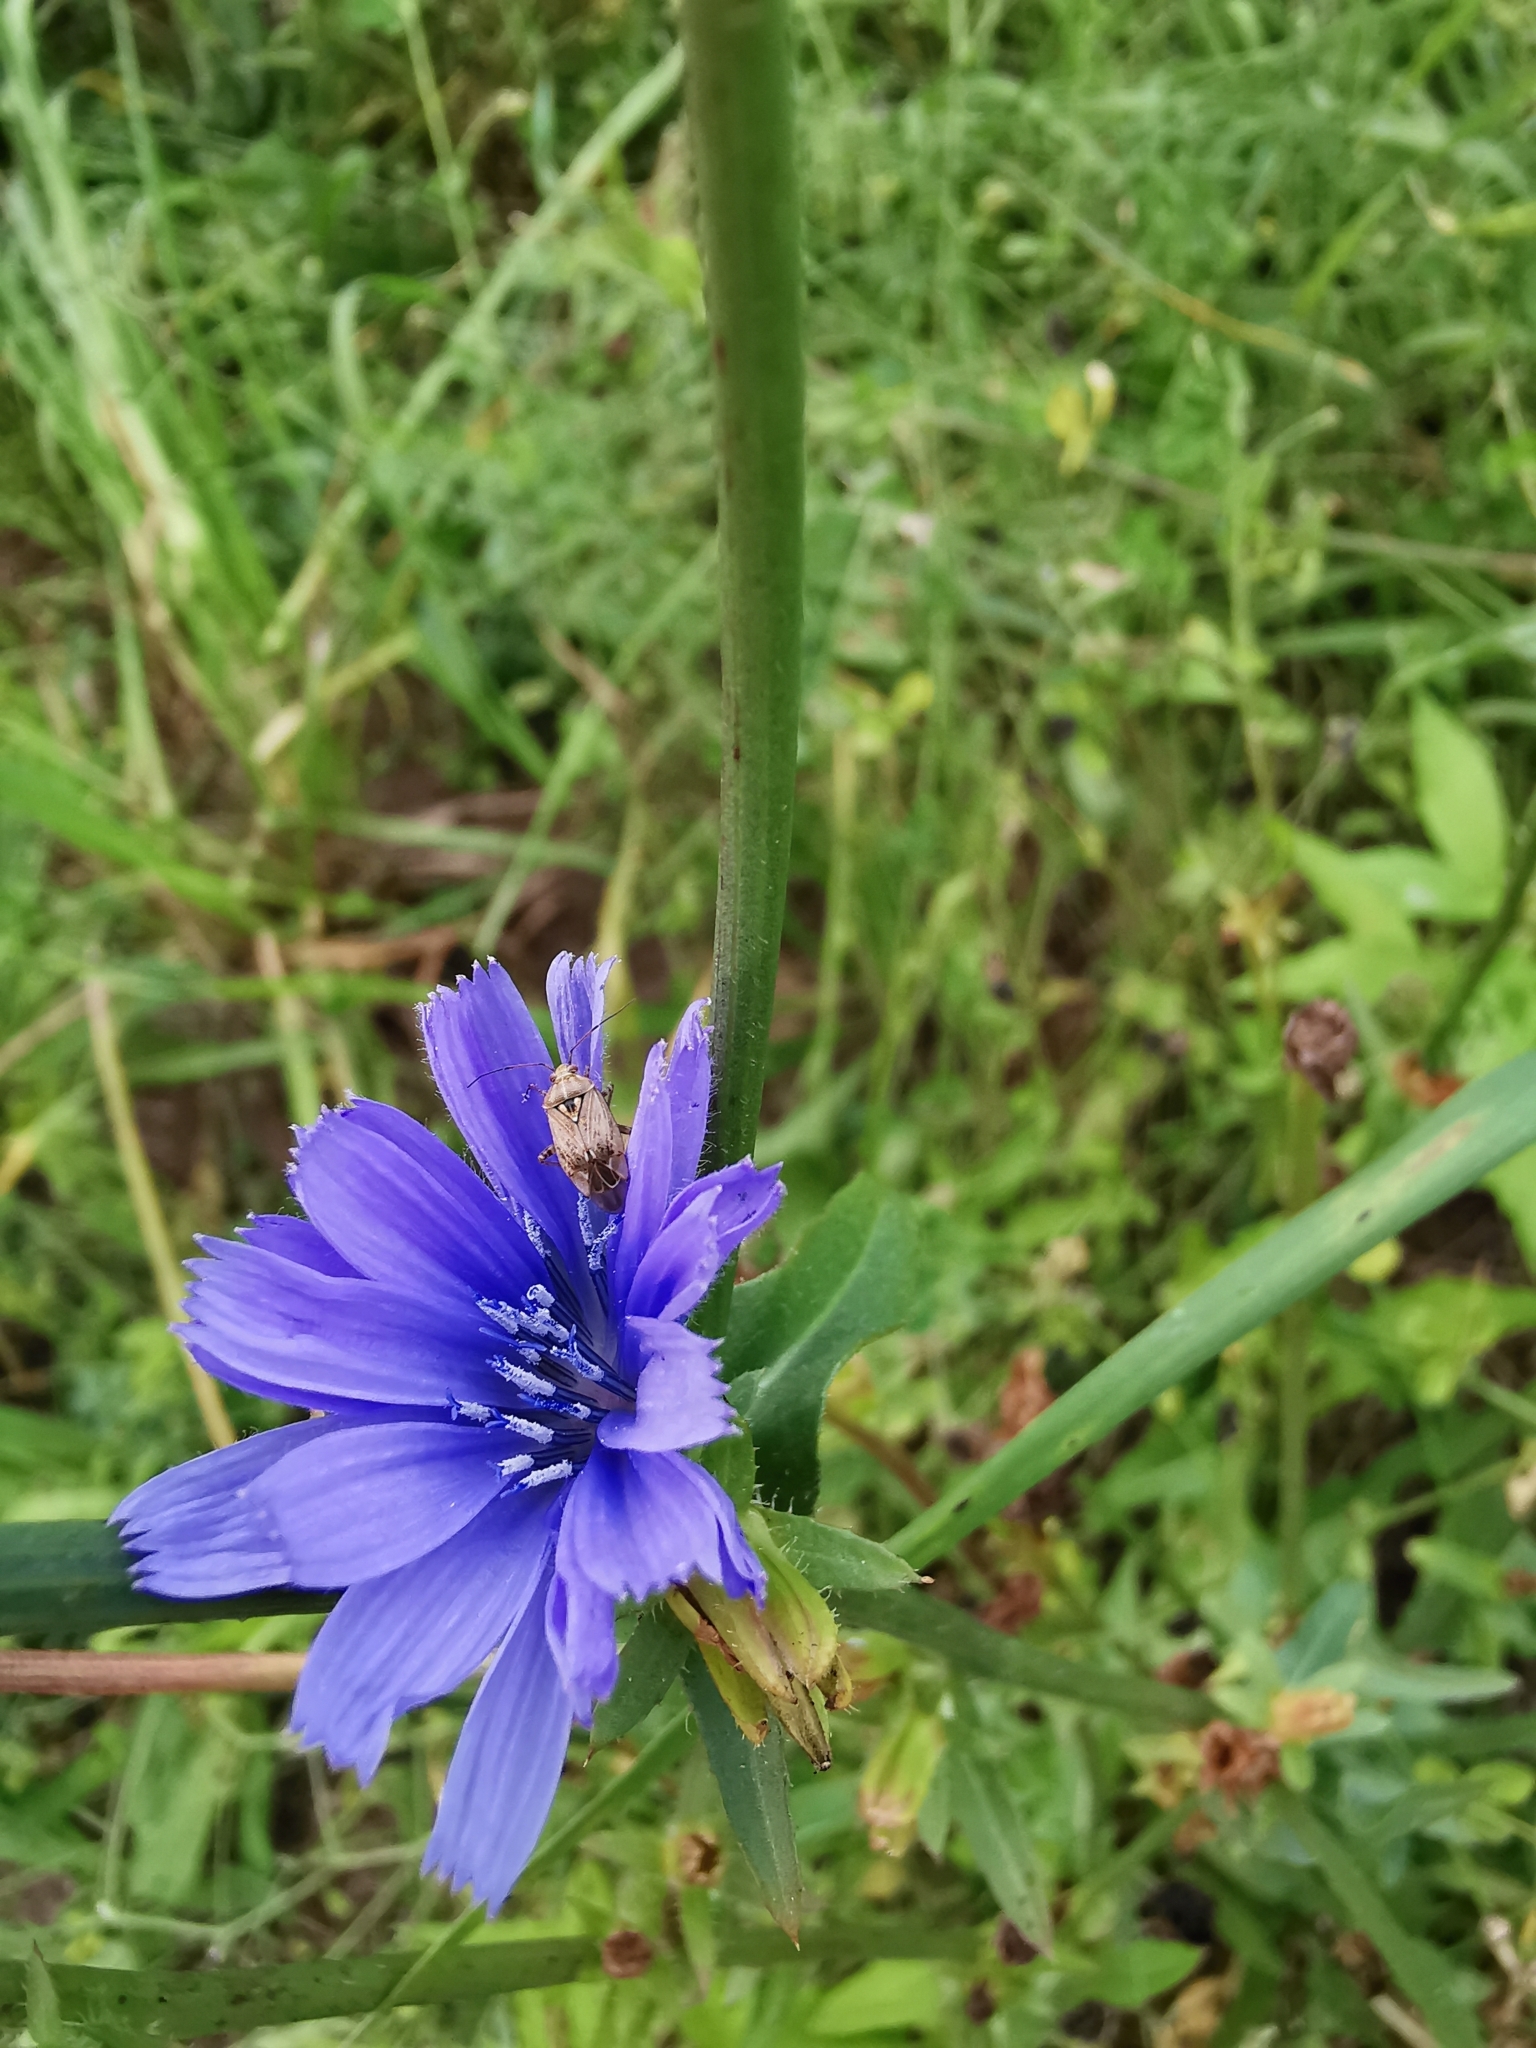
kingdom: Plantae
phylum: Tracheophyta
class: Magnoliopsida
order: Asterales
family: Asteraceae
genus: Cichorium
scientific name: Cichorium intybus
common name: Chicory
